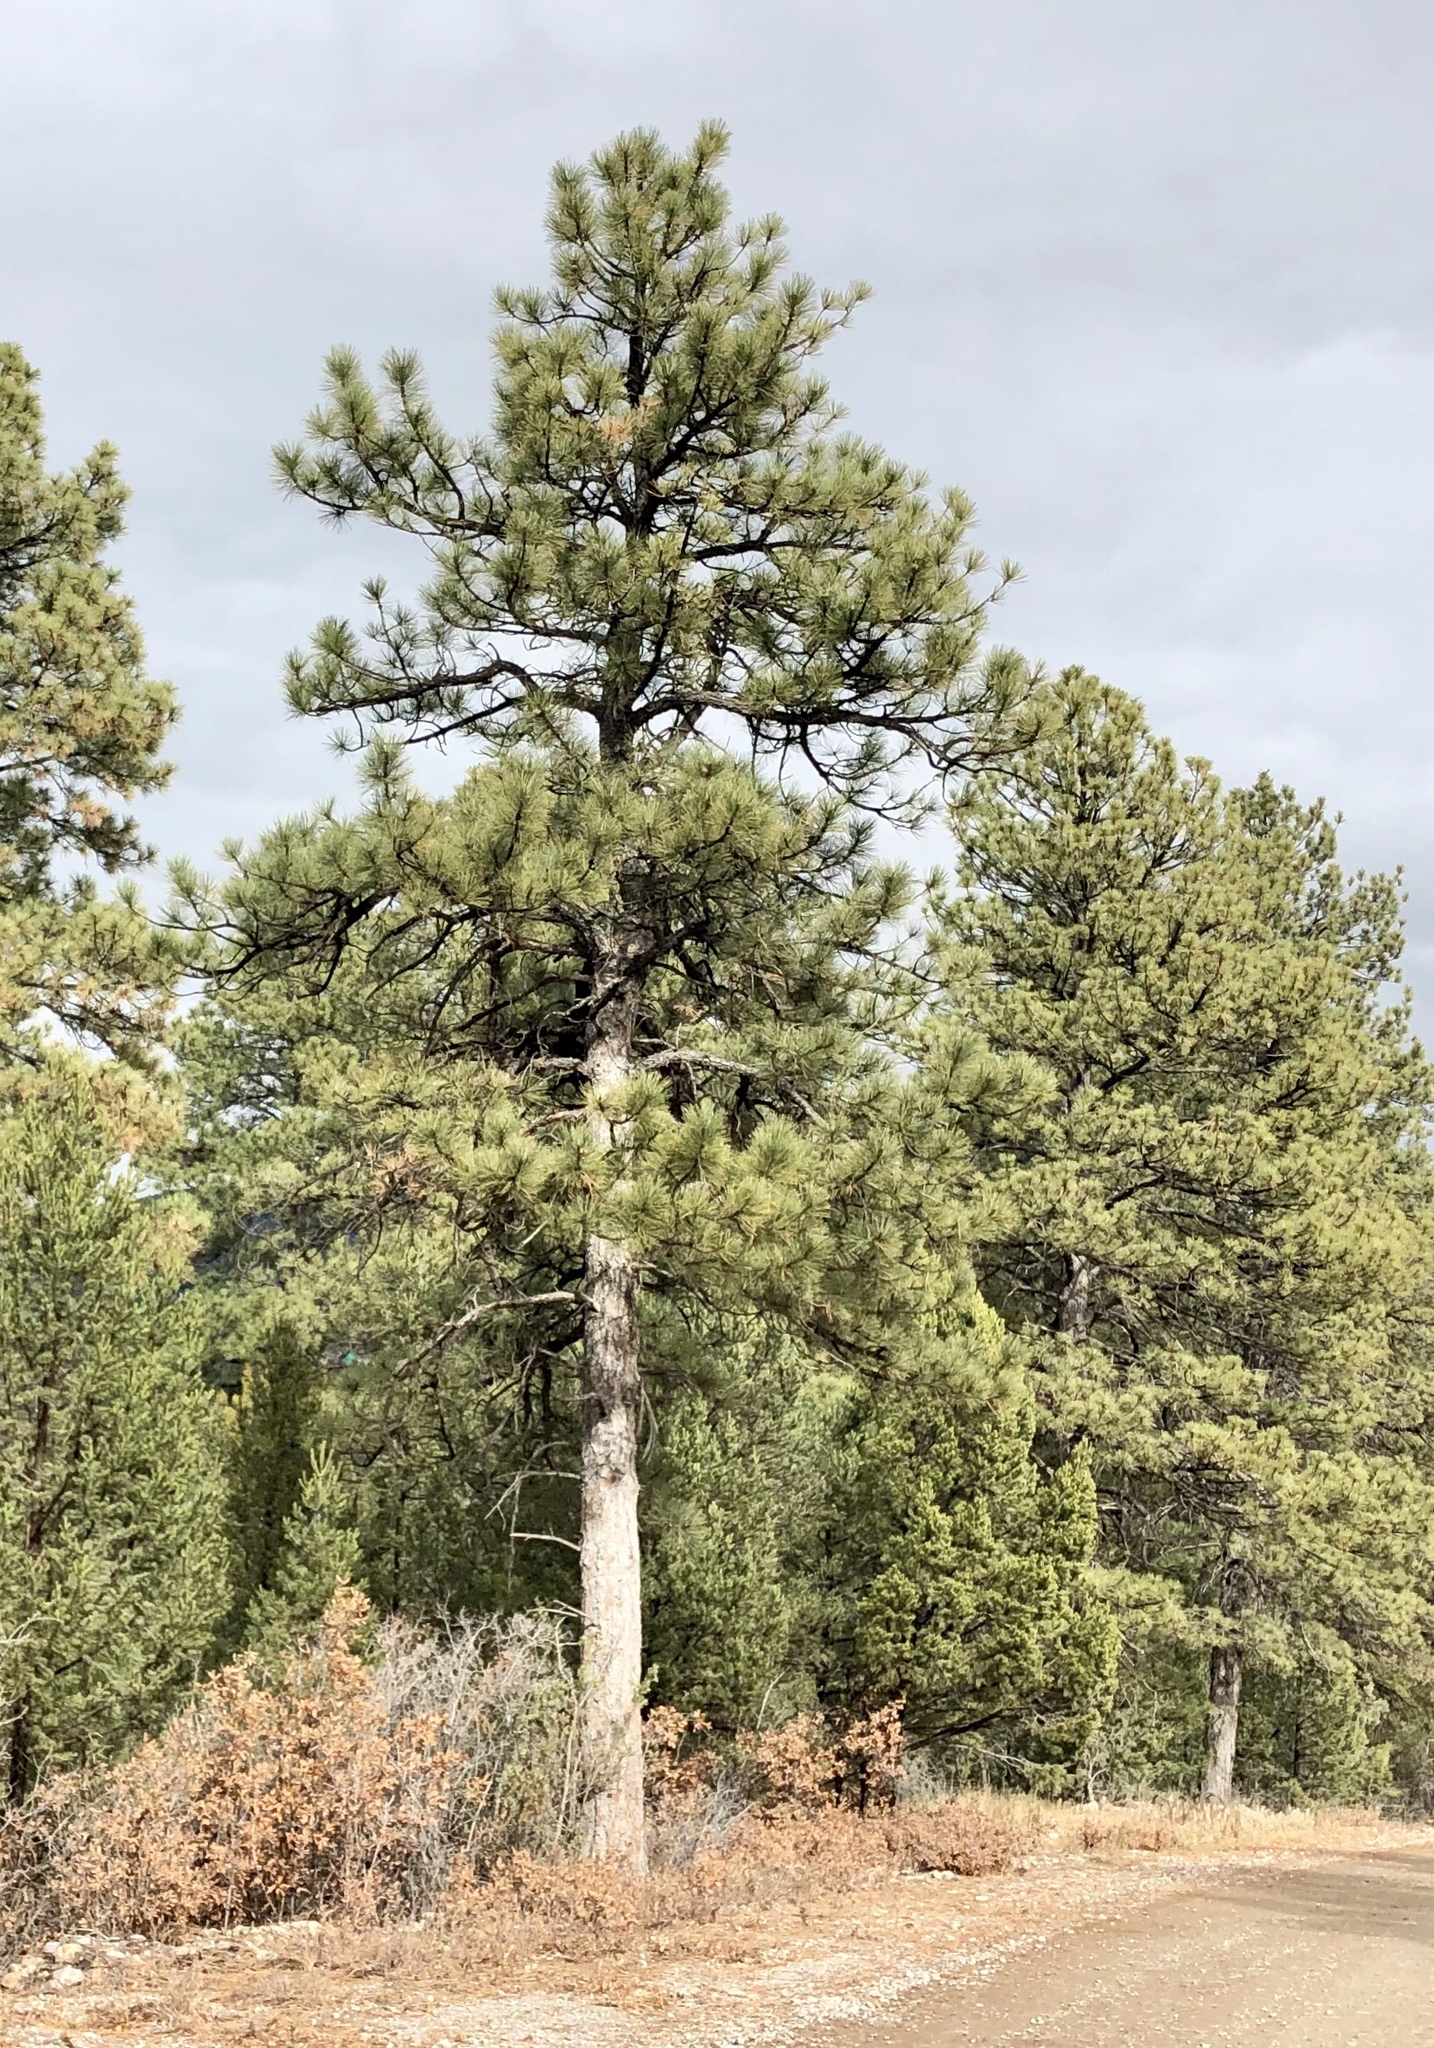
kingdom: Plantae
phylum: Tracheophyta
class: Pinopsida
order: Pinales
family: Pinaceae
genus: Pinus
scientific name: Pinus ponderosa
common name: Western yellow-pine
